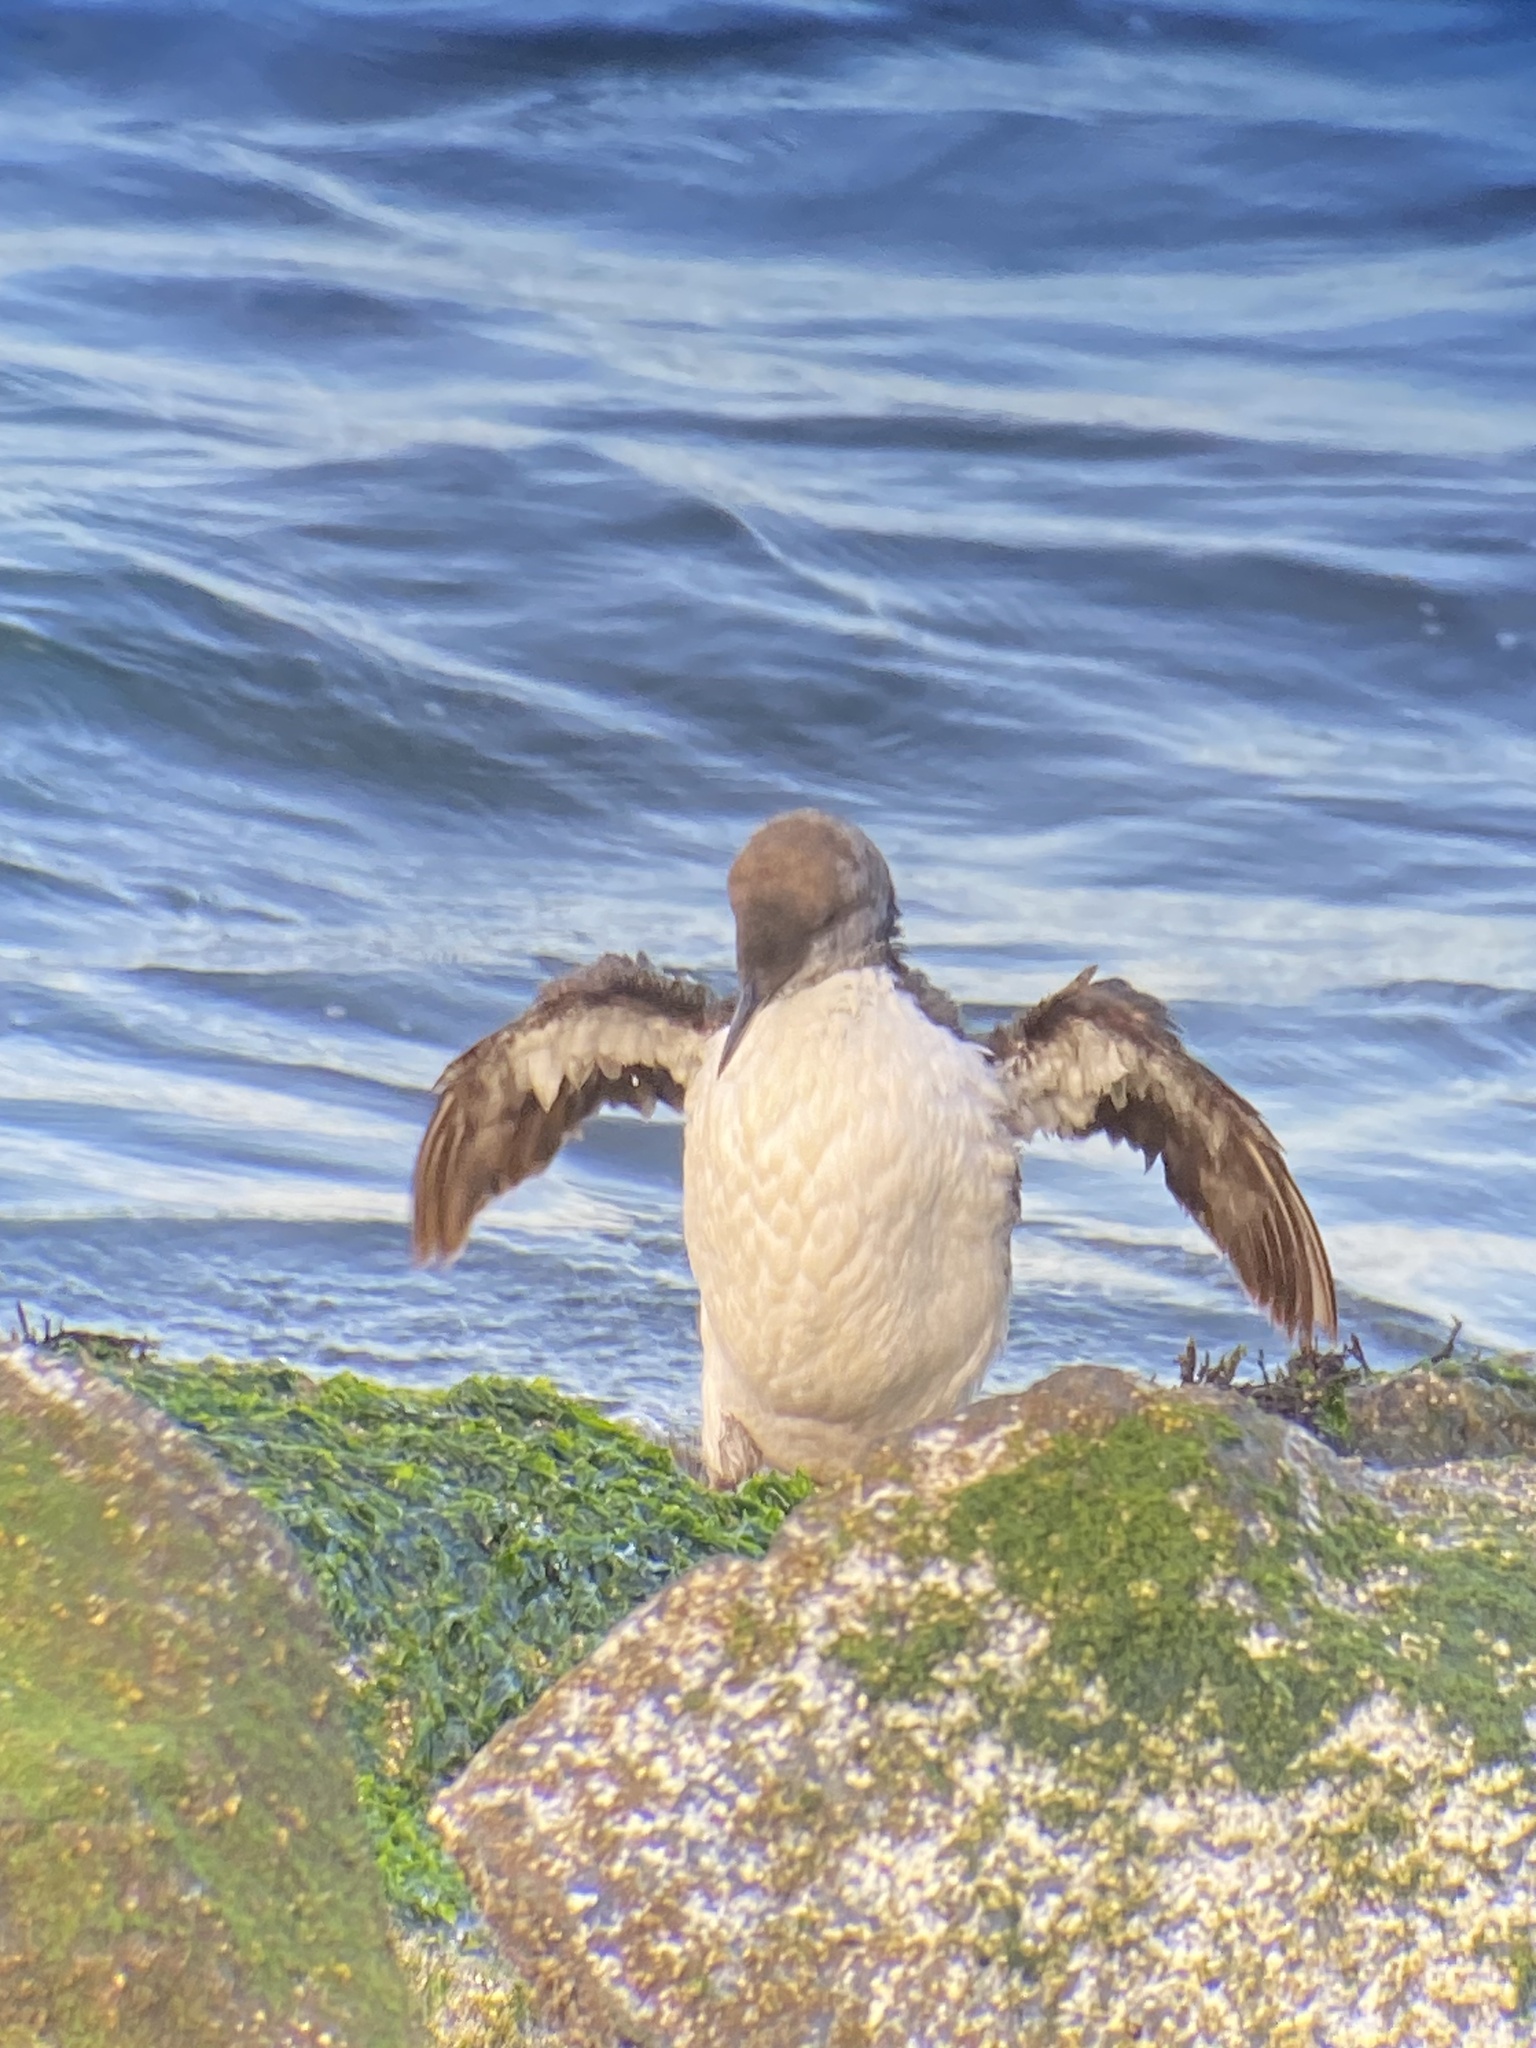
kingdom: Animalia
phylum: Chordata
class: Aves
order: Charadriiformes
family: Alcidae
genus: Uria
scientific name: Uria aalge
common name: Common murre
